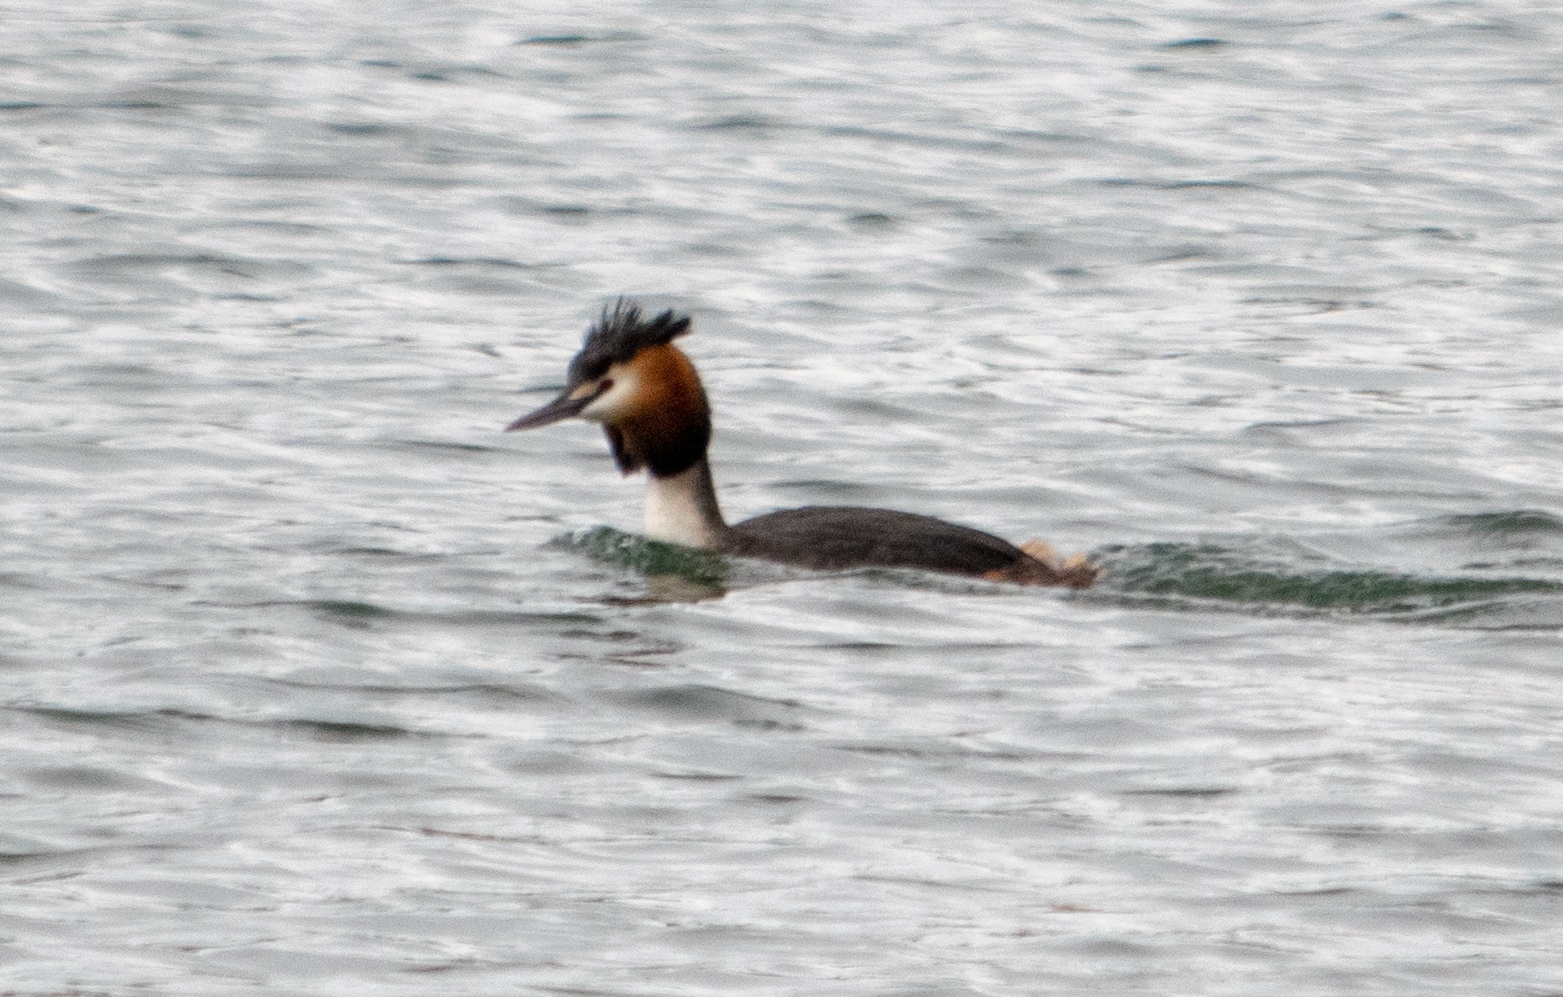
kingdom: Animalia
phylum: Chordata
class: Aves
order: Podicipediformes
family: Podicipedidae
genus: Podiceps
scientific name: Podiceps cristatus
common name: Great crested grebe
